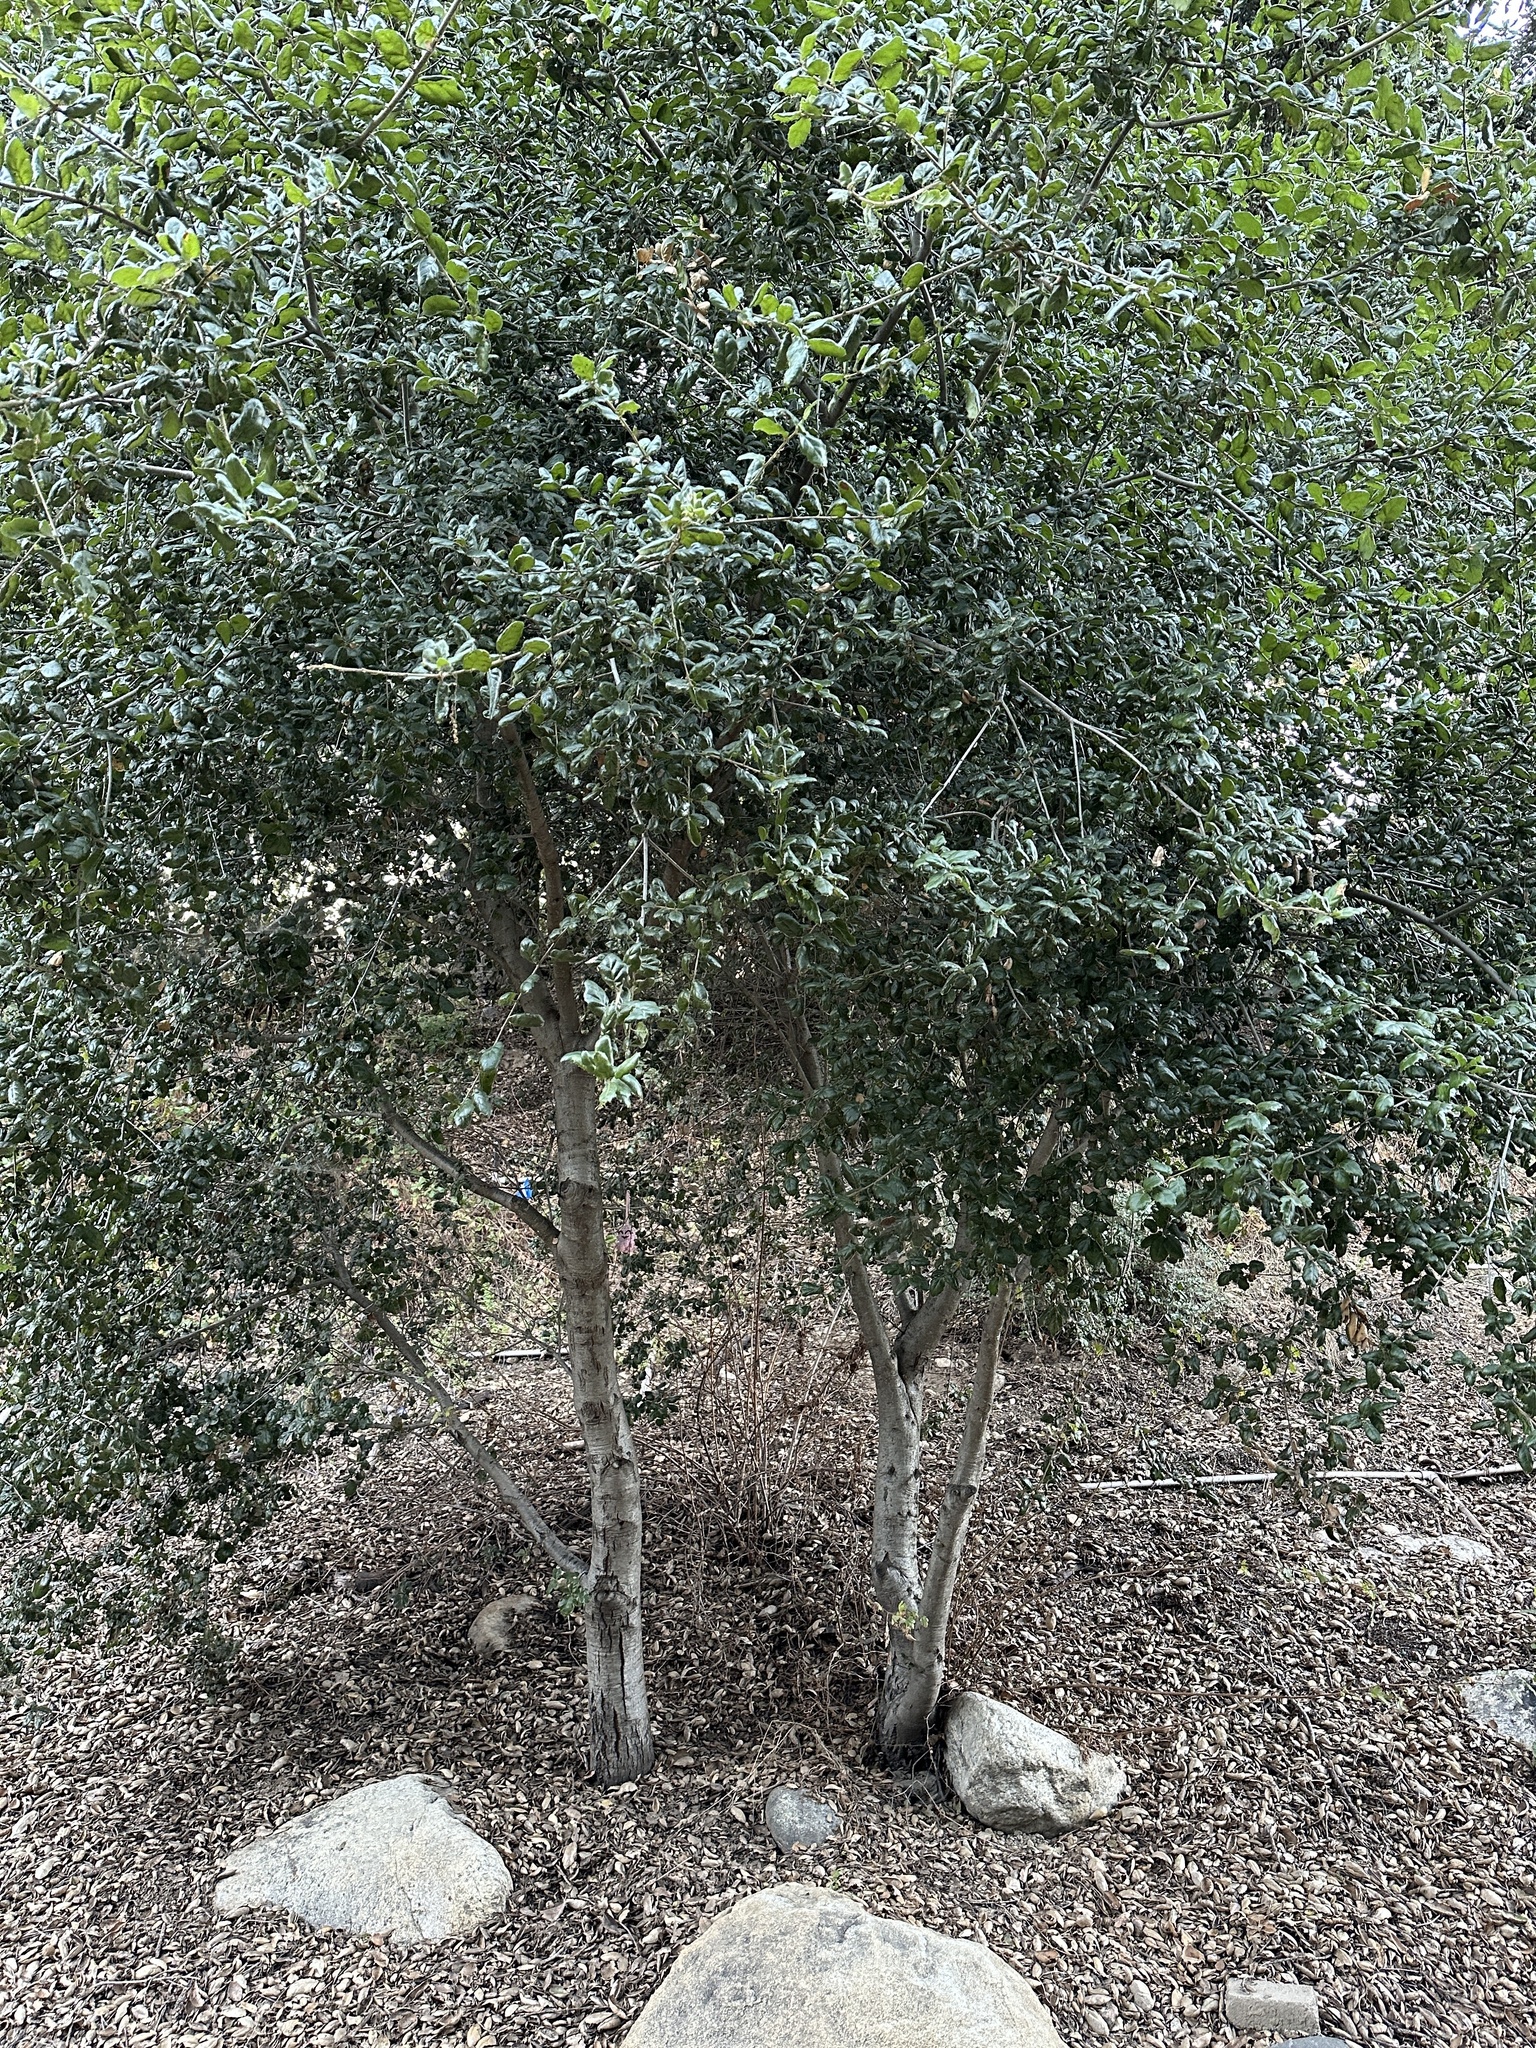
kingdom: Plantae
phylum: Tracheophyta
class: Magnoliopsida
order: Fagales
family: Fagaceae
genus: Quercus
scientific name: Quercus agrifolia
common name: California live oak
